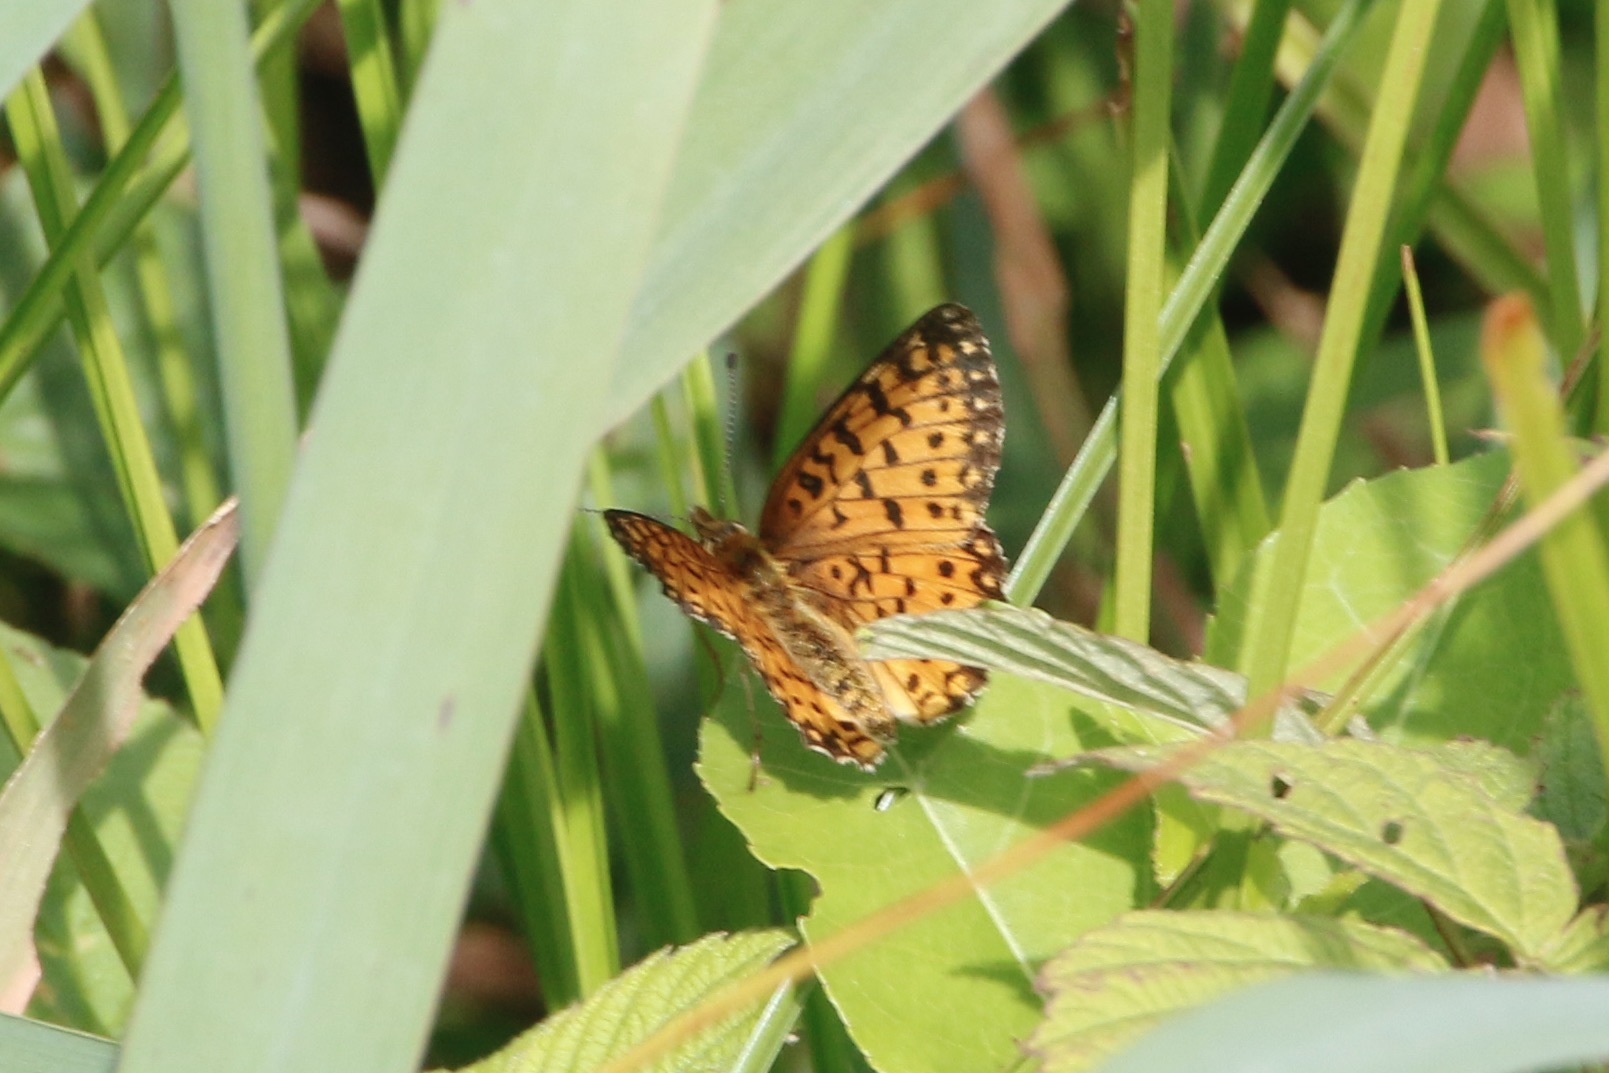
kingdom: Animalia
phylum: Arthropoda
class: Insecta
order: Lepidoptera
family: Nymphalidae
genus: Boloria
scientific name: Boloria
